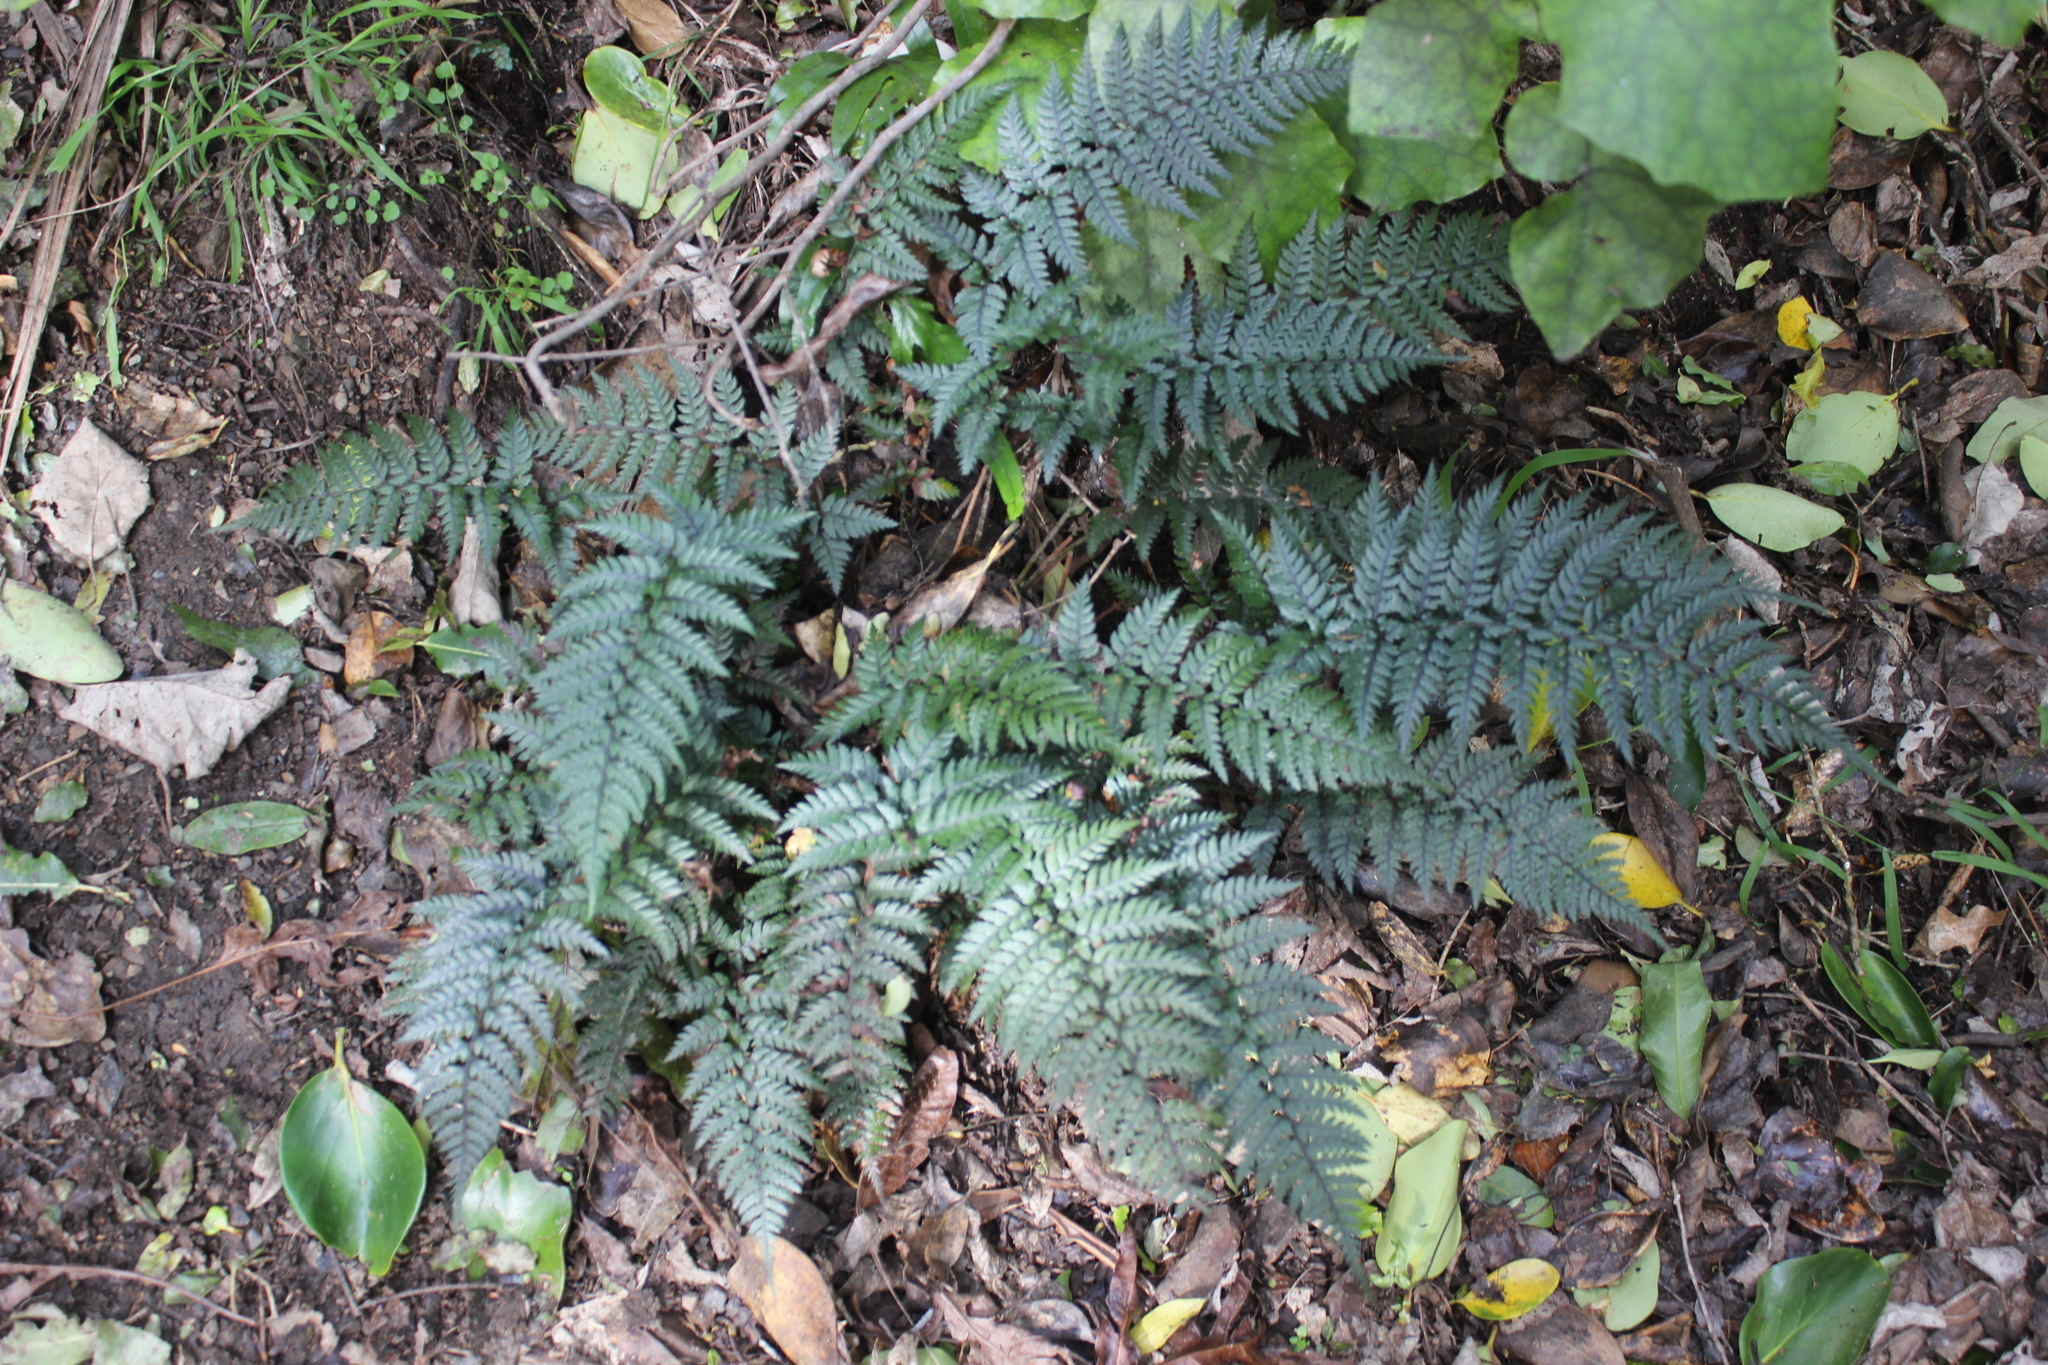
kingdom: Plantae
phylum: Tracheophyta
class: Polypodiopsida
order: Polypodiales
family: Dryopteridaceae
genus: Polystichum
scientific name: Polystichum neozelandicum
